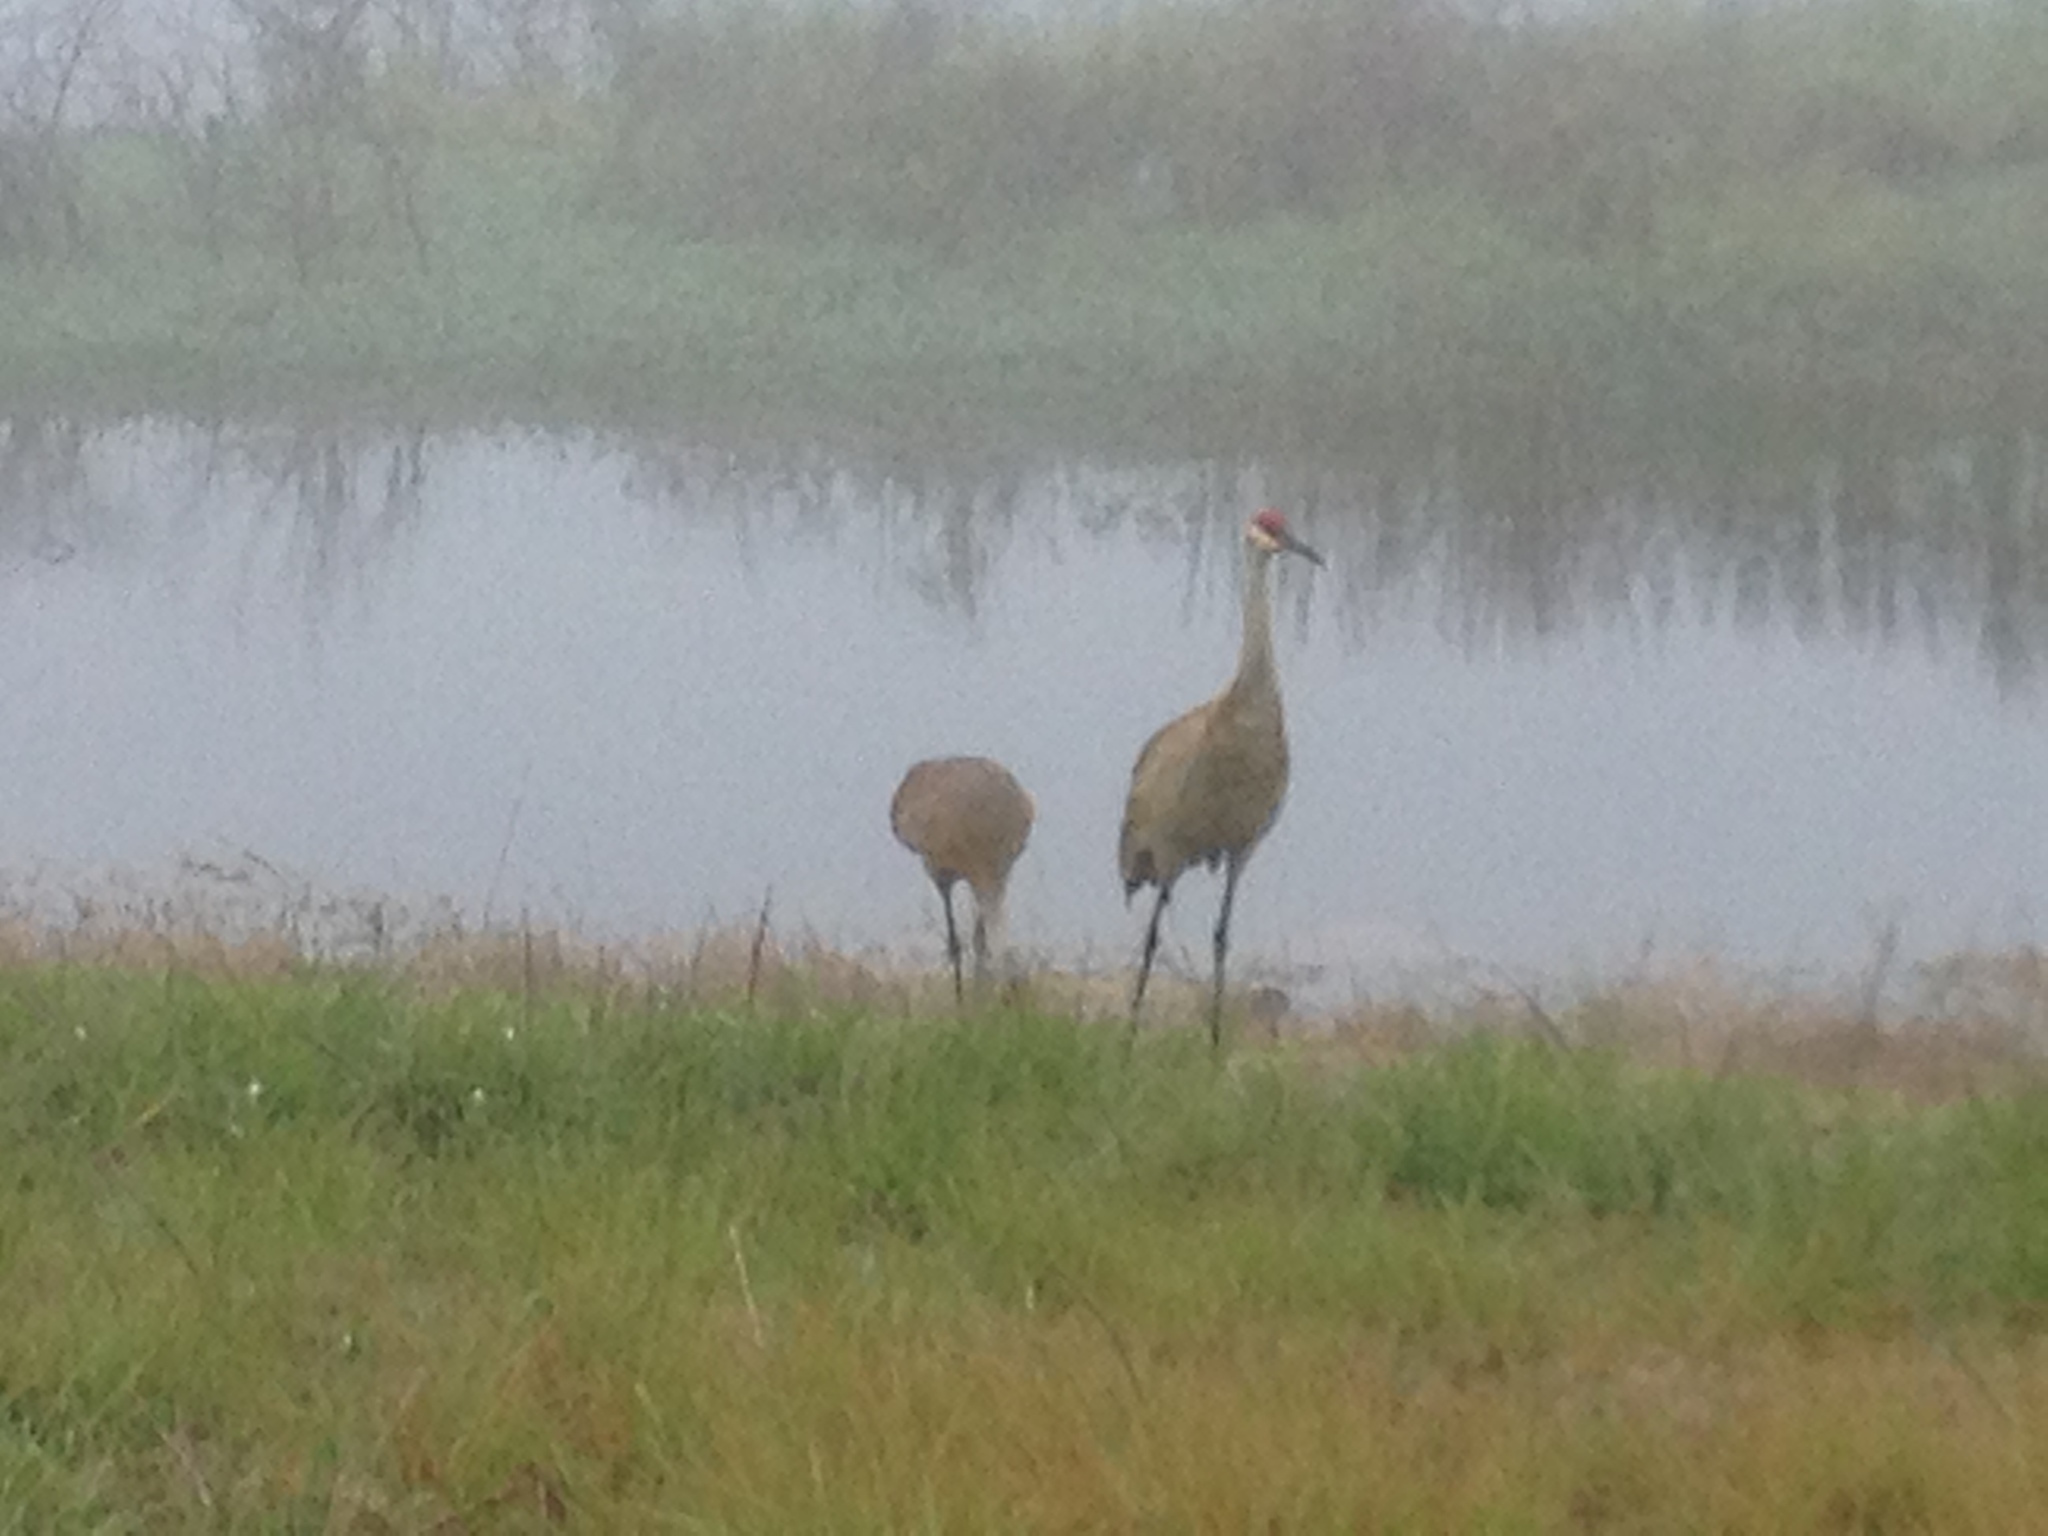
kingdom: Animalia
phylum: Chordata
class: Aves
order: Gruiformes
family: Gruidae
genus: Grus
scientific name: Grus canadensis
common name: Sandhill crane
